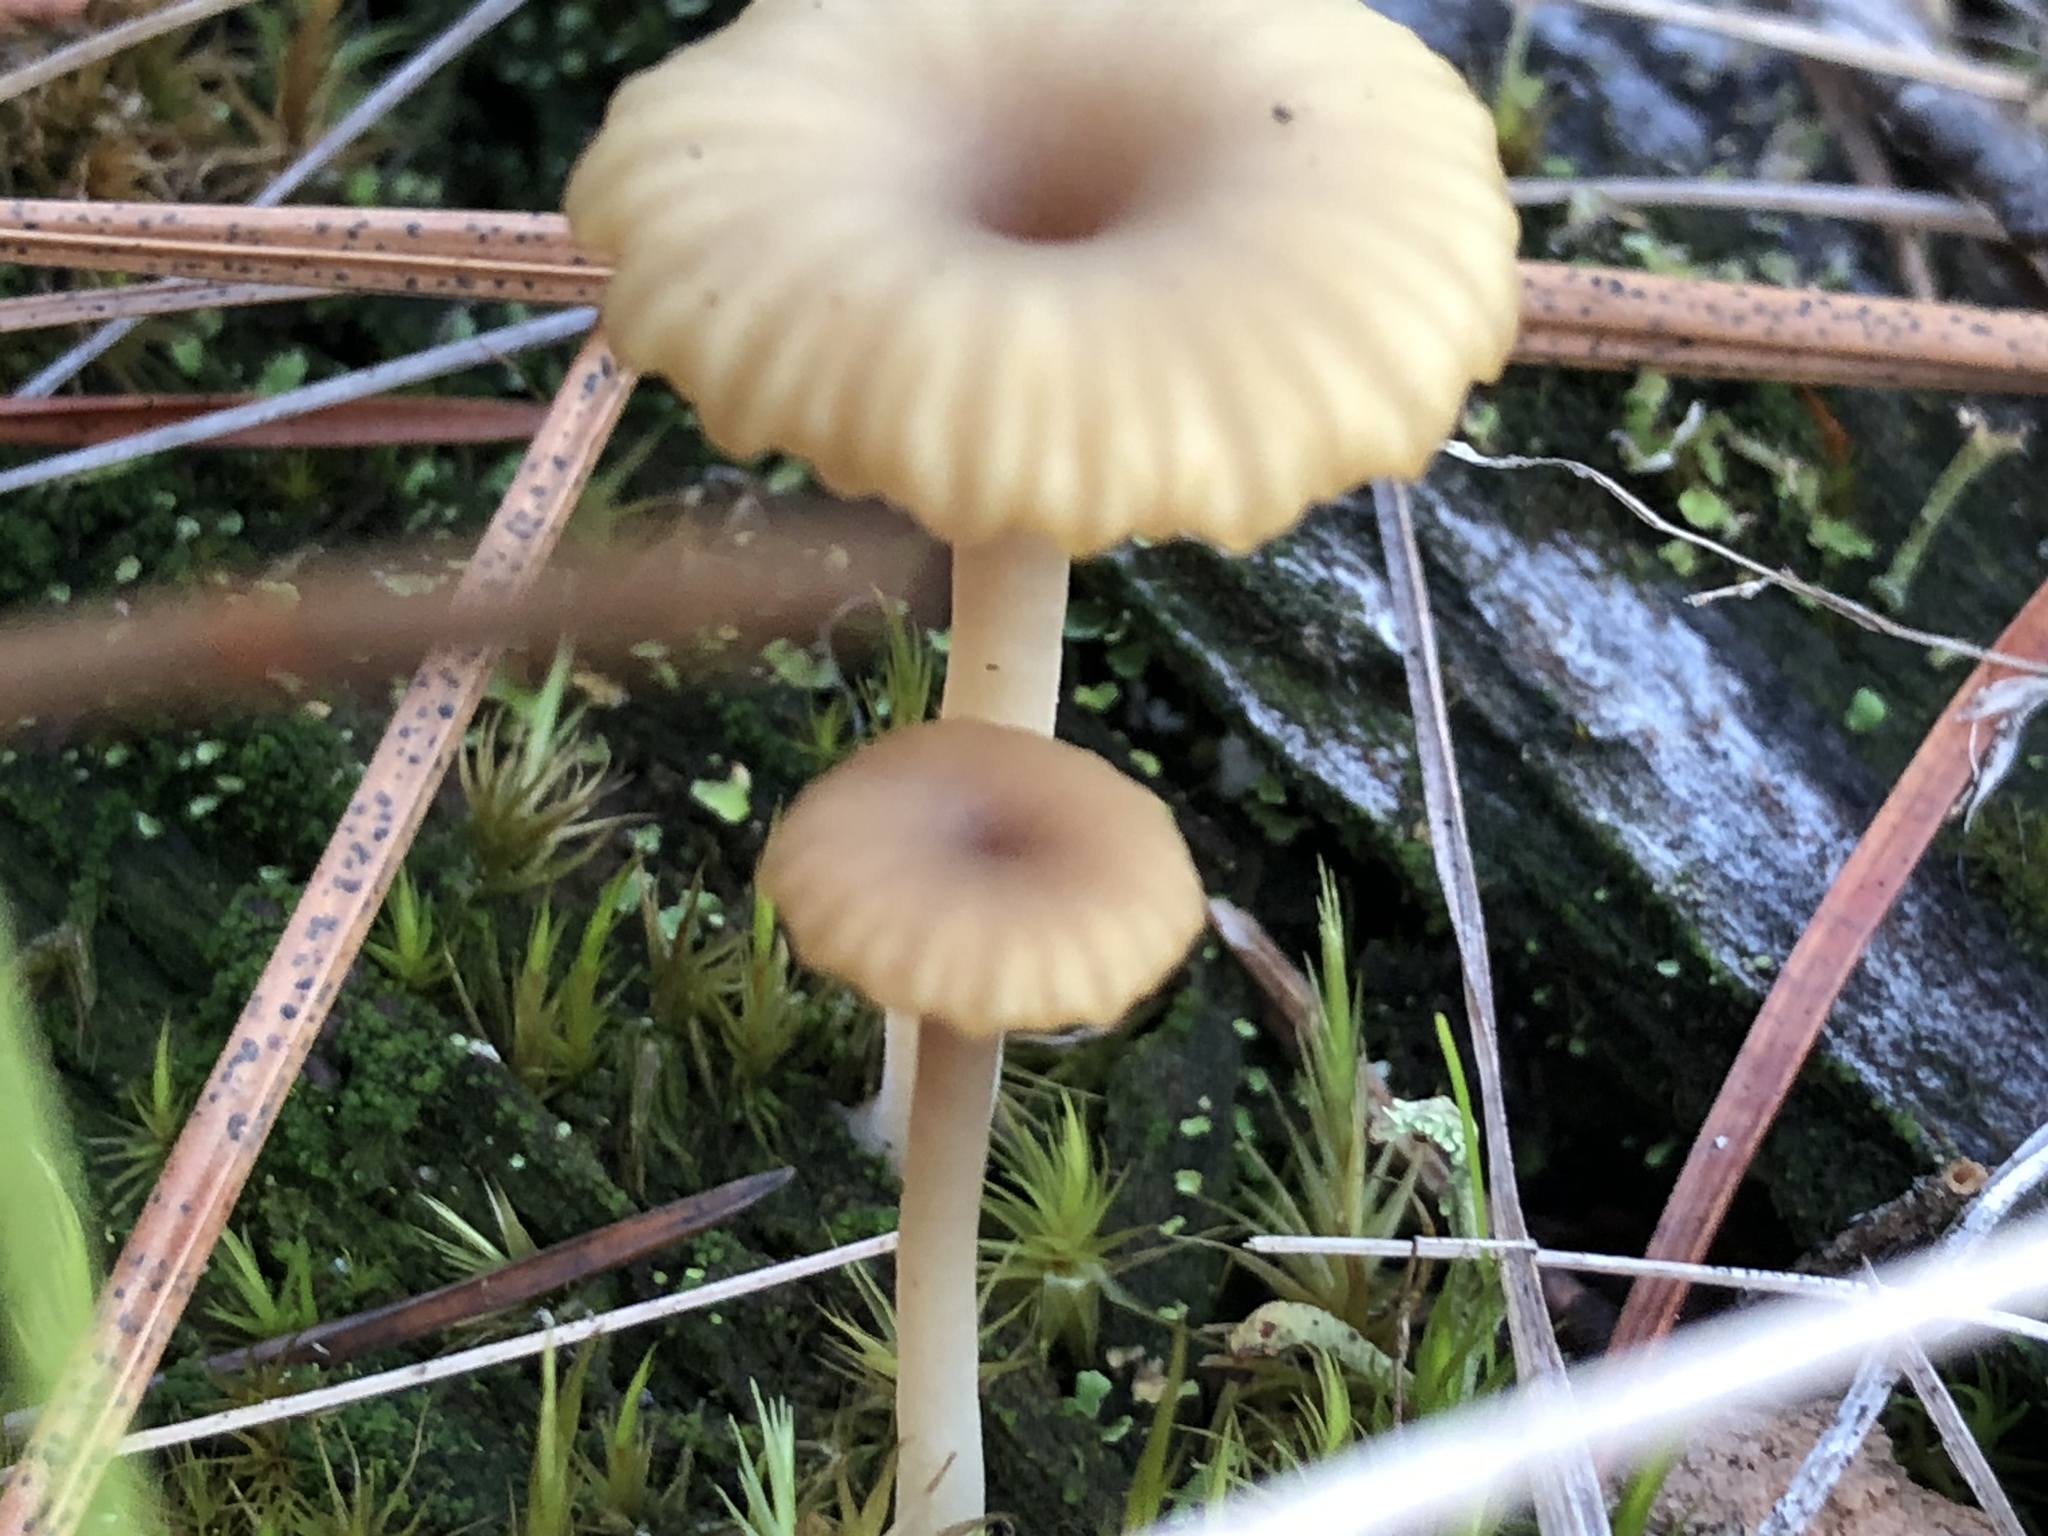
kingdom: Fungi
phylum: Basidiomycota
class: Agaricomycetes
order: Agaricales
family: Hygrophoraceae
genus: Lichenomphalia
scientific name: Lichenomphalia
